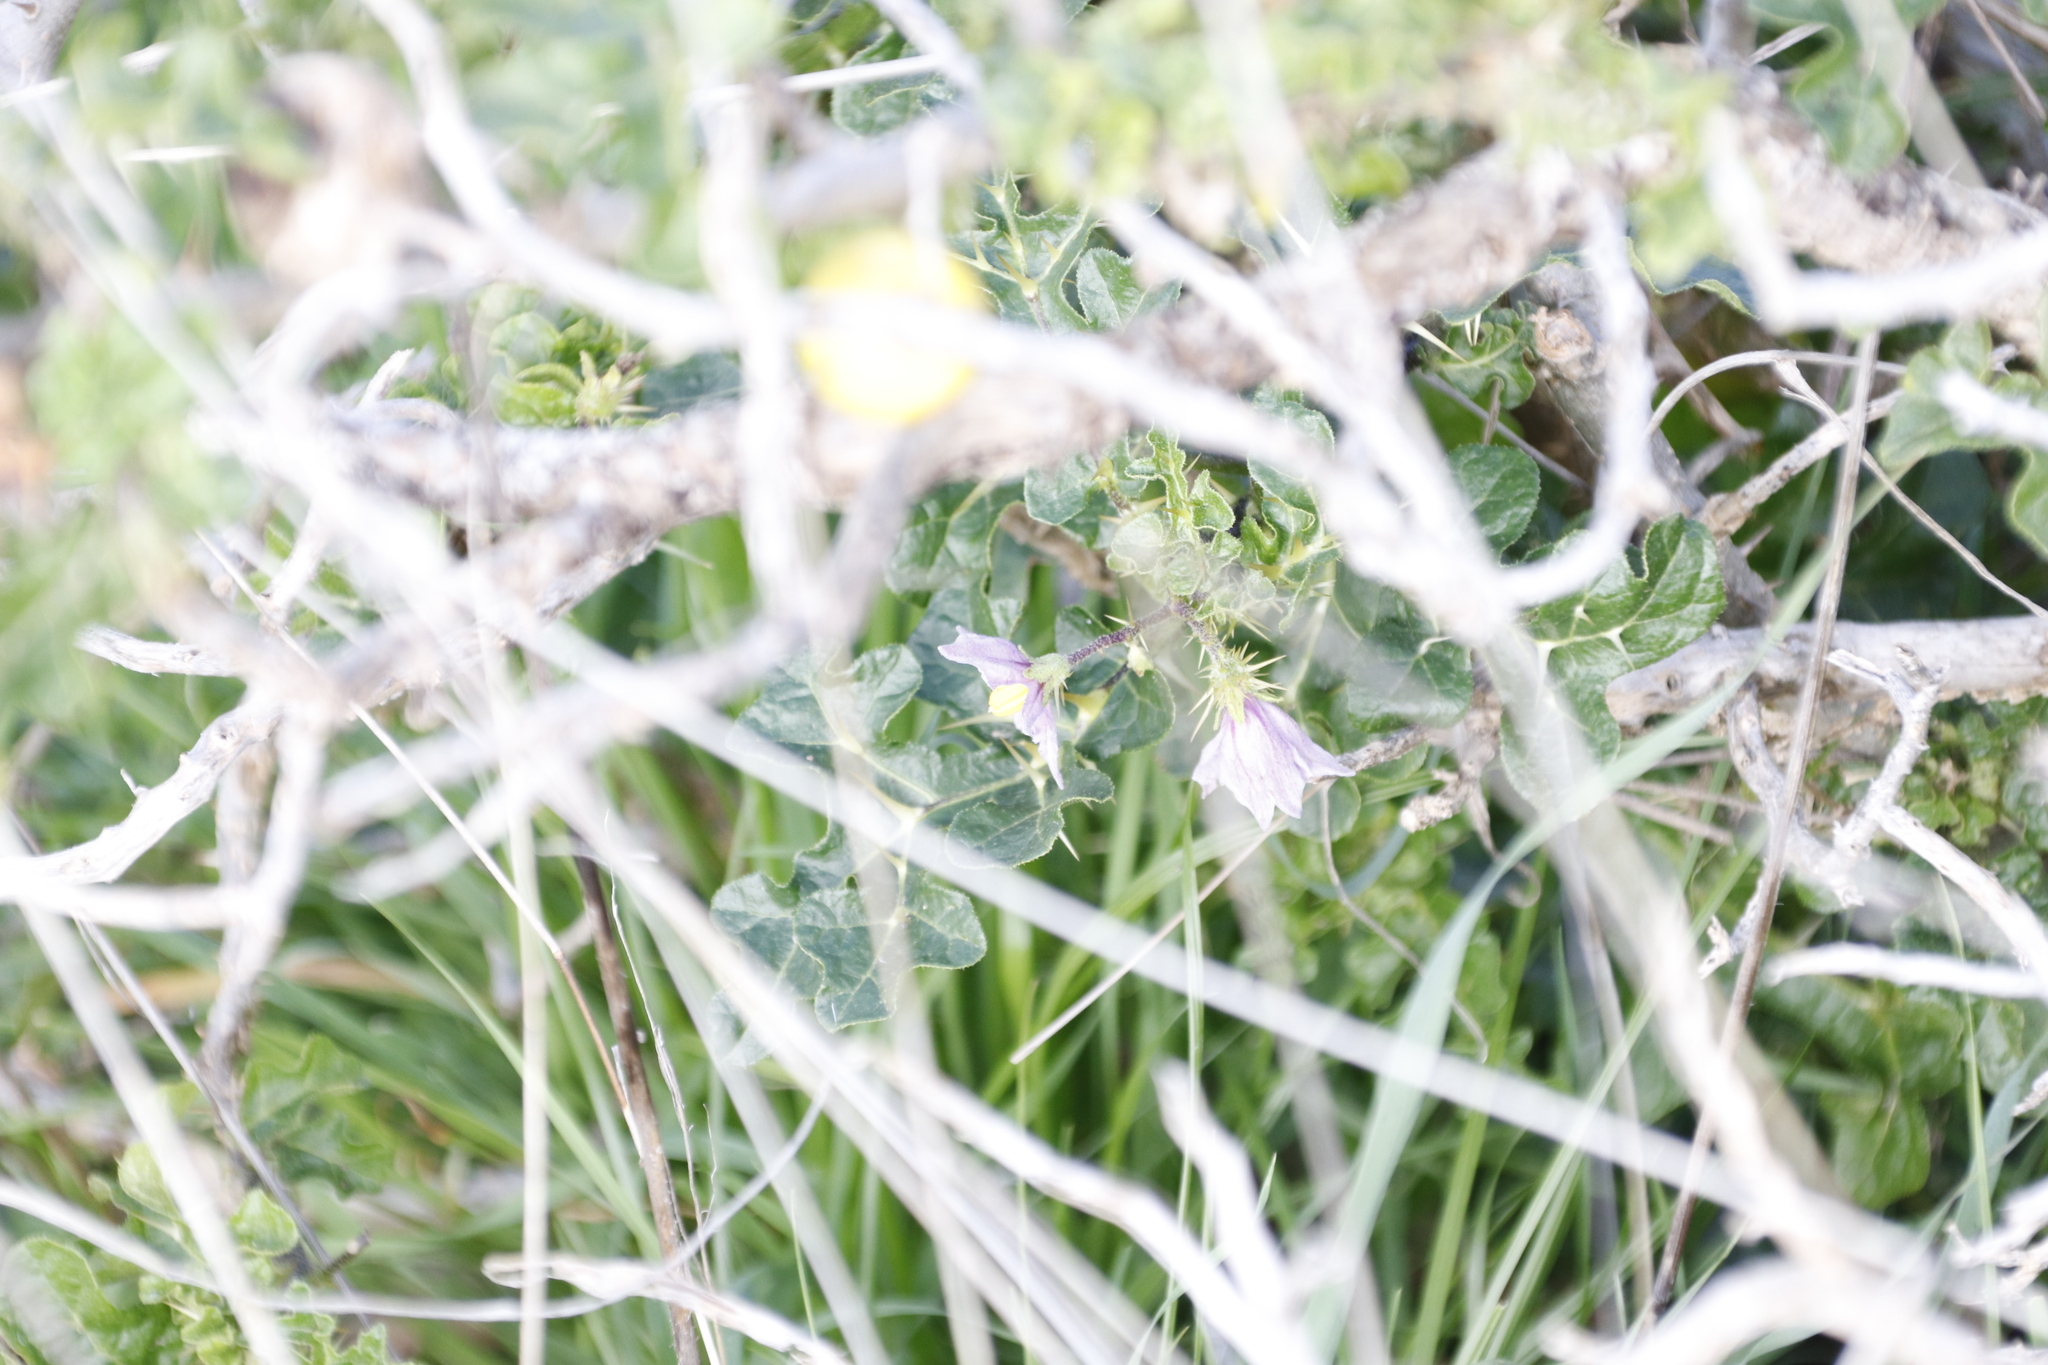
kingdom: Plantae
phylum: Tracheophyta
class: Magnoliopsida
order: Solanales
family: Solanaceae
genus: Solanum
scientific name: Solanum linnaeanum
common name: Nightshade
